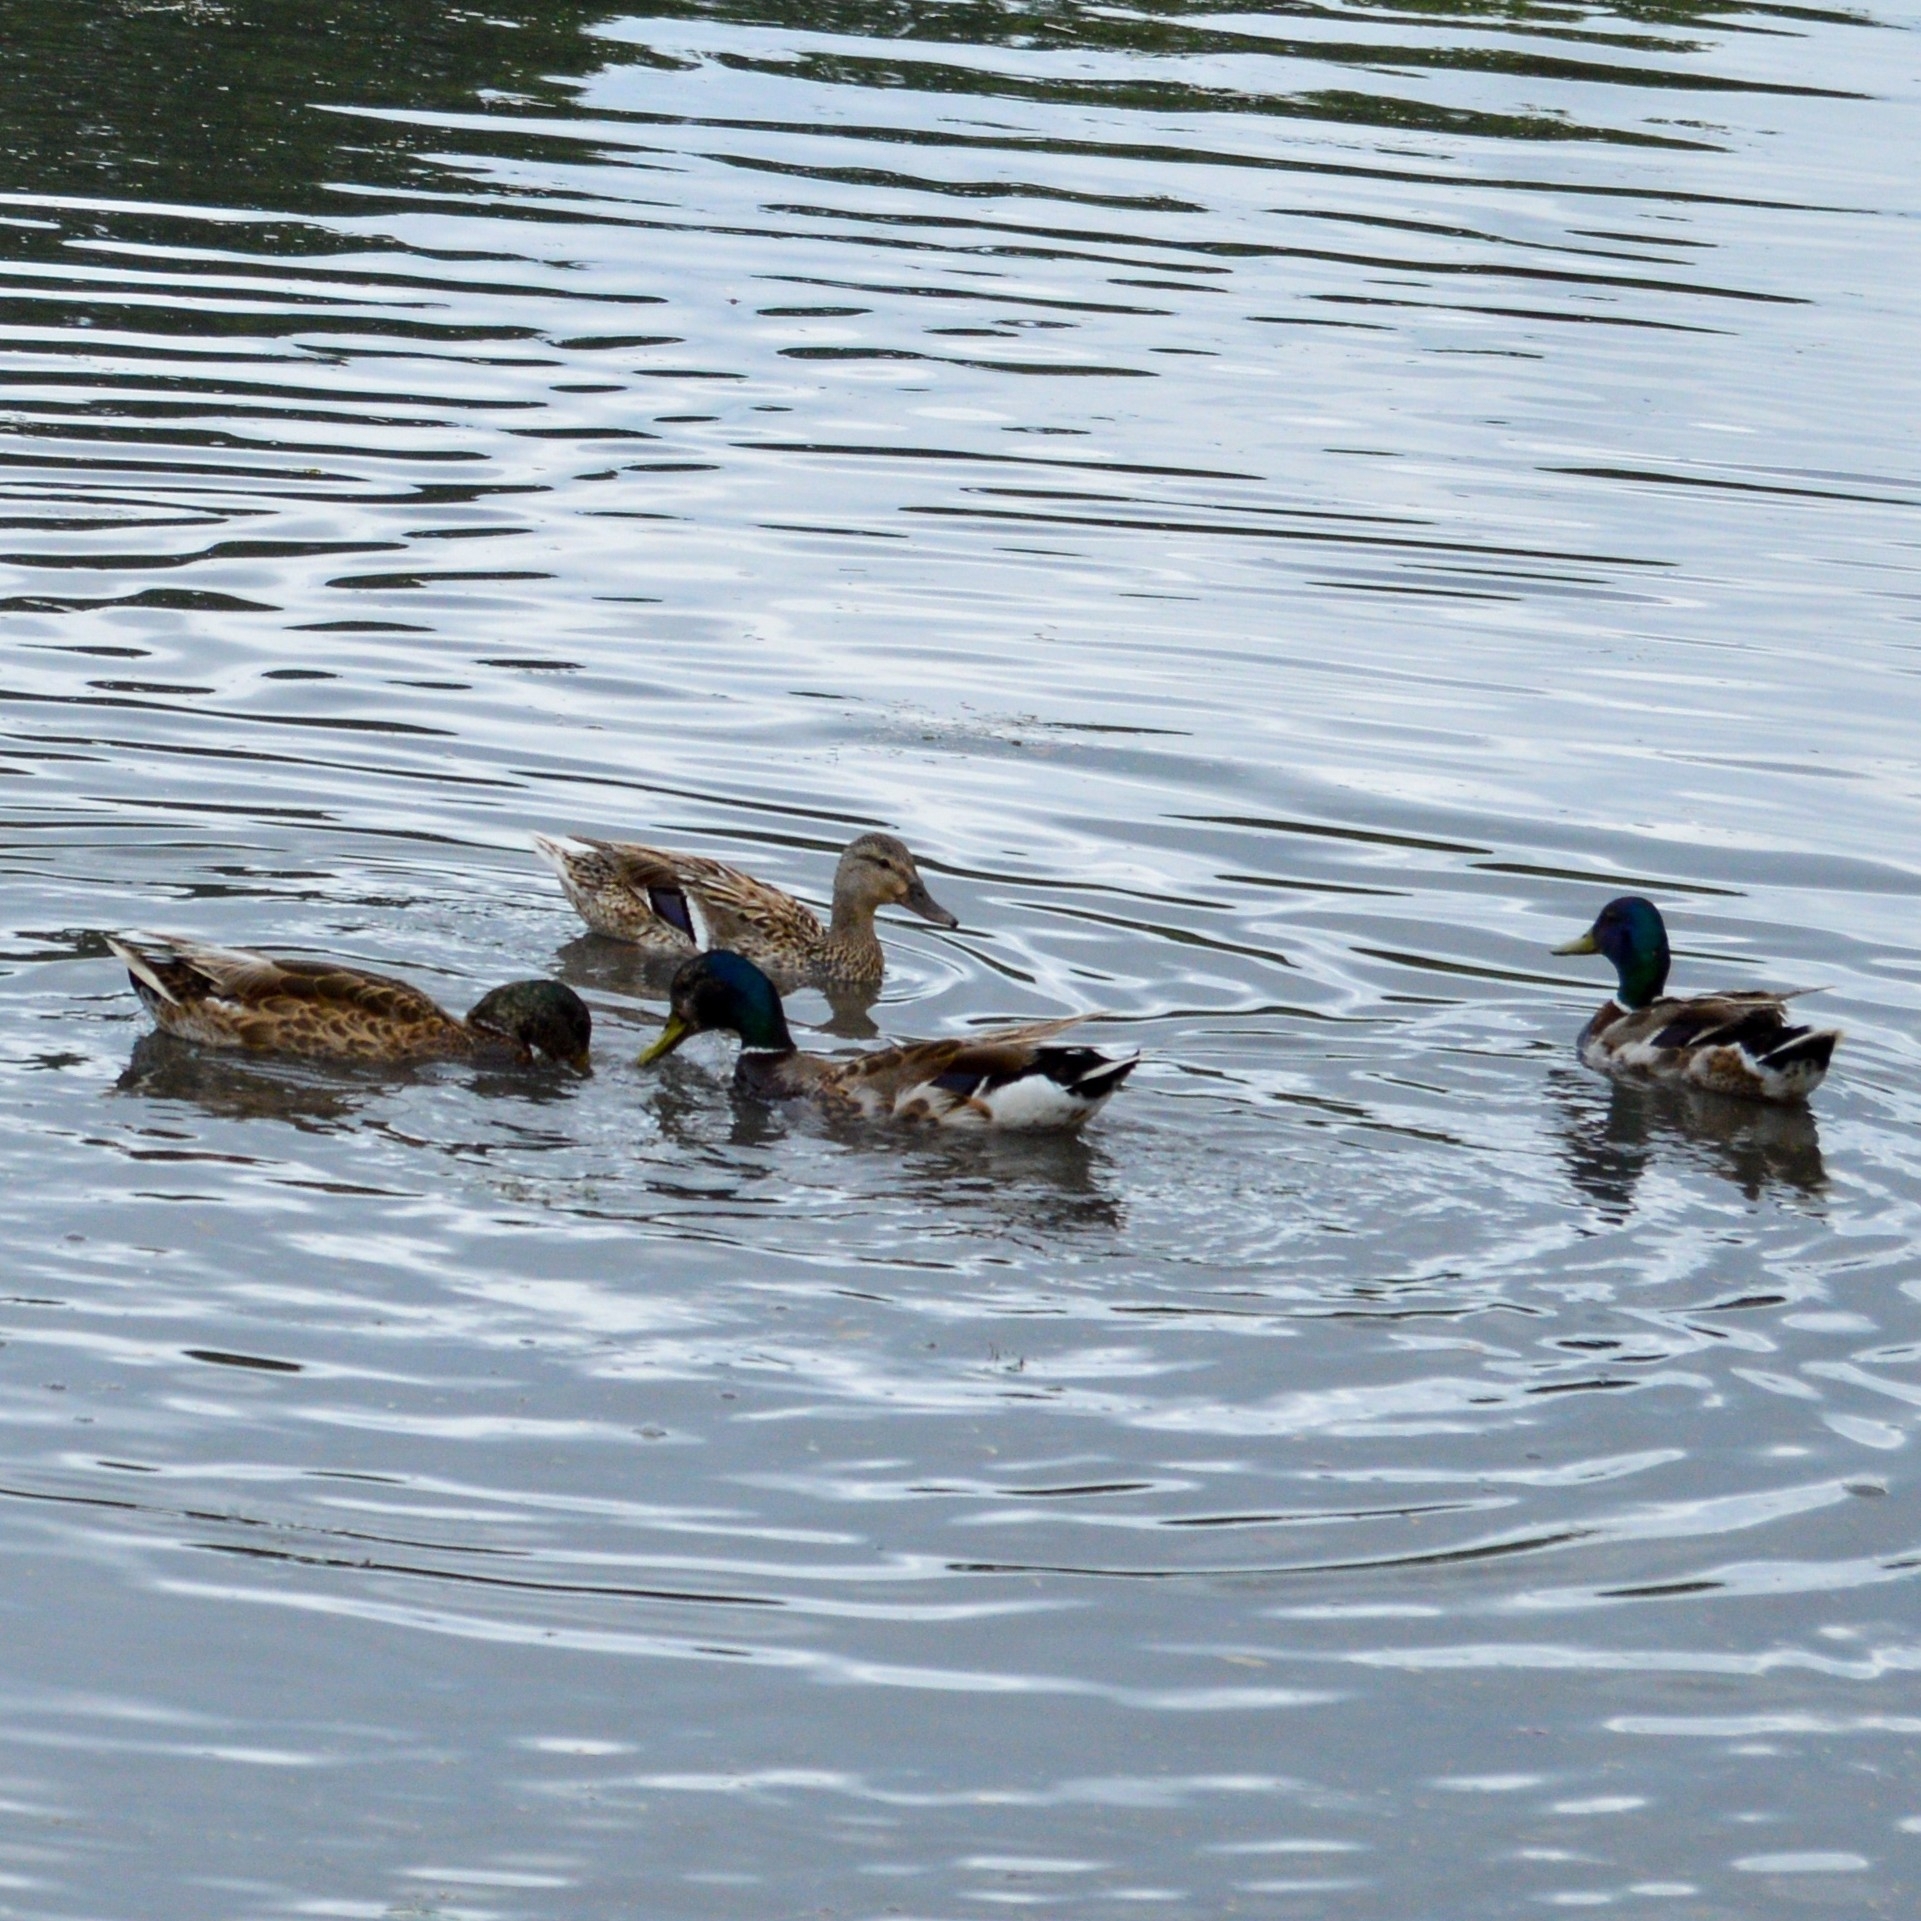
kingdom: Animalia
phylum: Chordata
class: Aves
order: Anseriformes
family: Anatidae
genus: Anas
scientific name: Anas platyrhynchos
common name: Mallard
